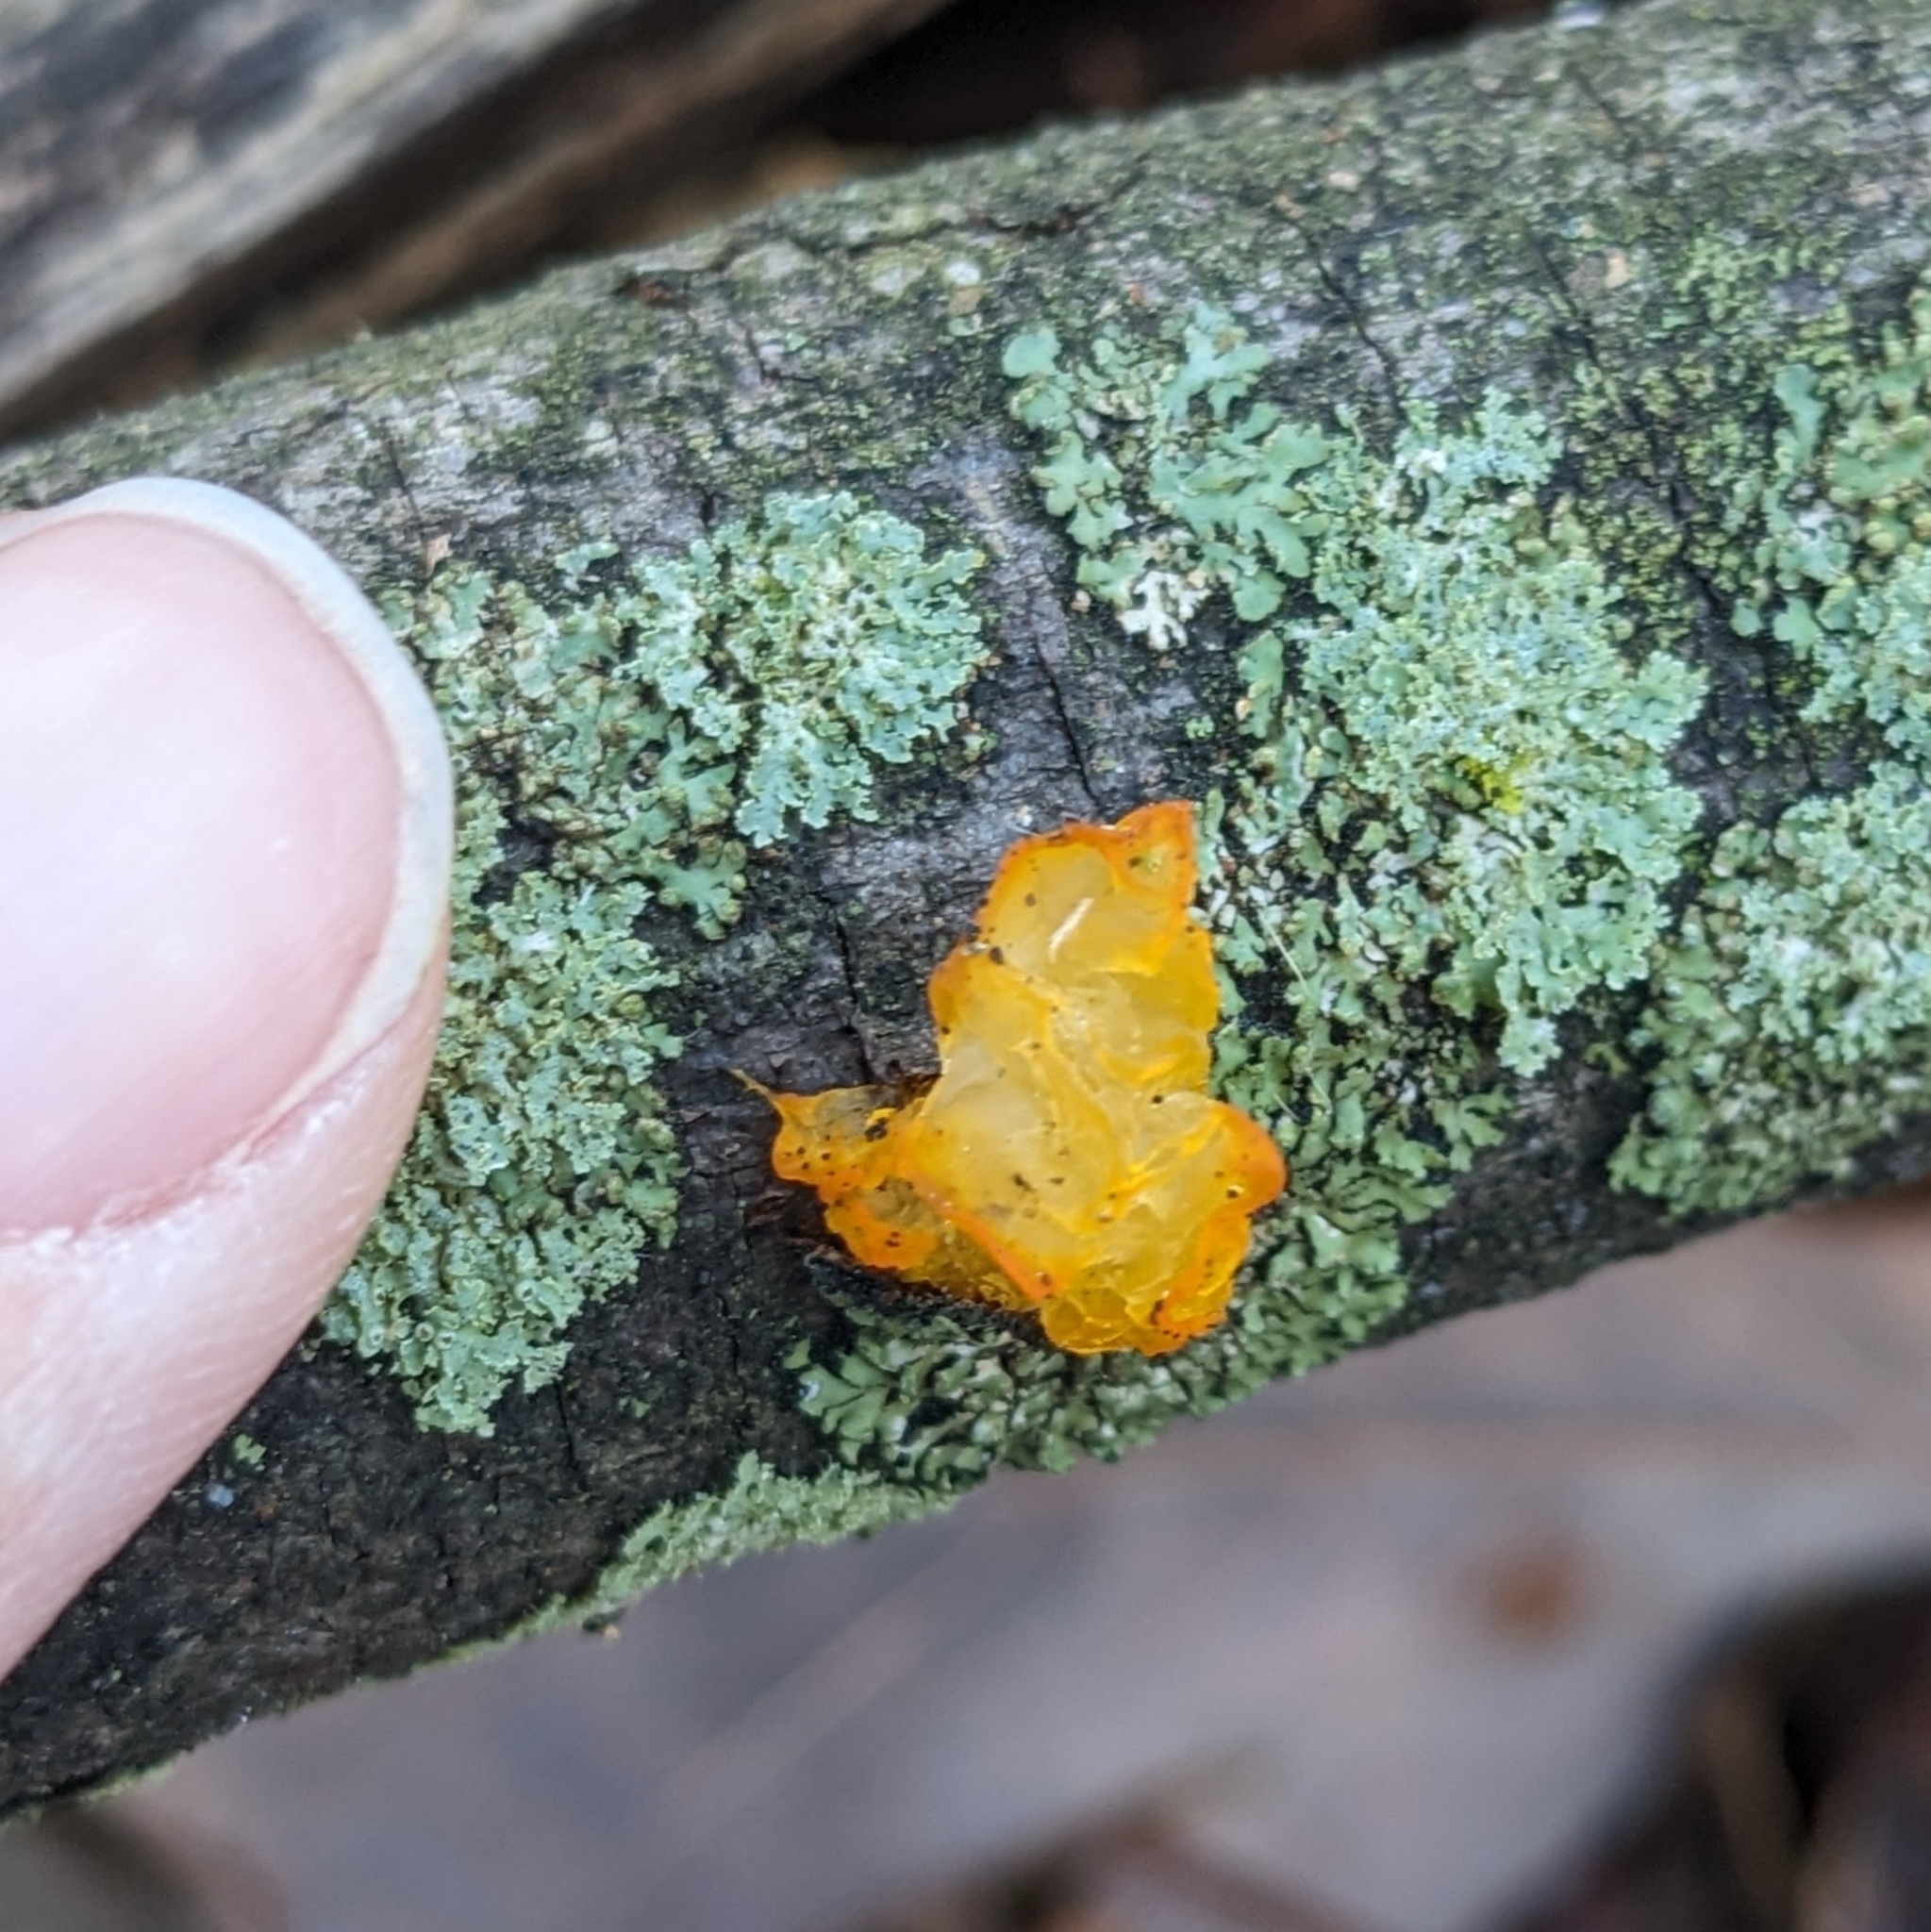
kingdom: Fungi
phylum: Basidiomycota
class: Tremellomycetes
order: Tremellales
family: Tremellaceae
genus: Tremella
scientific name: Tremella mesenterica
